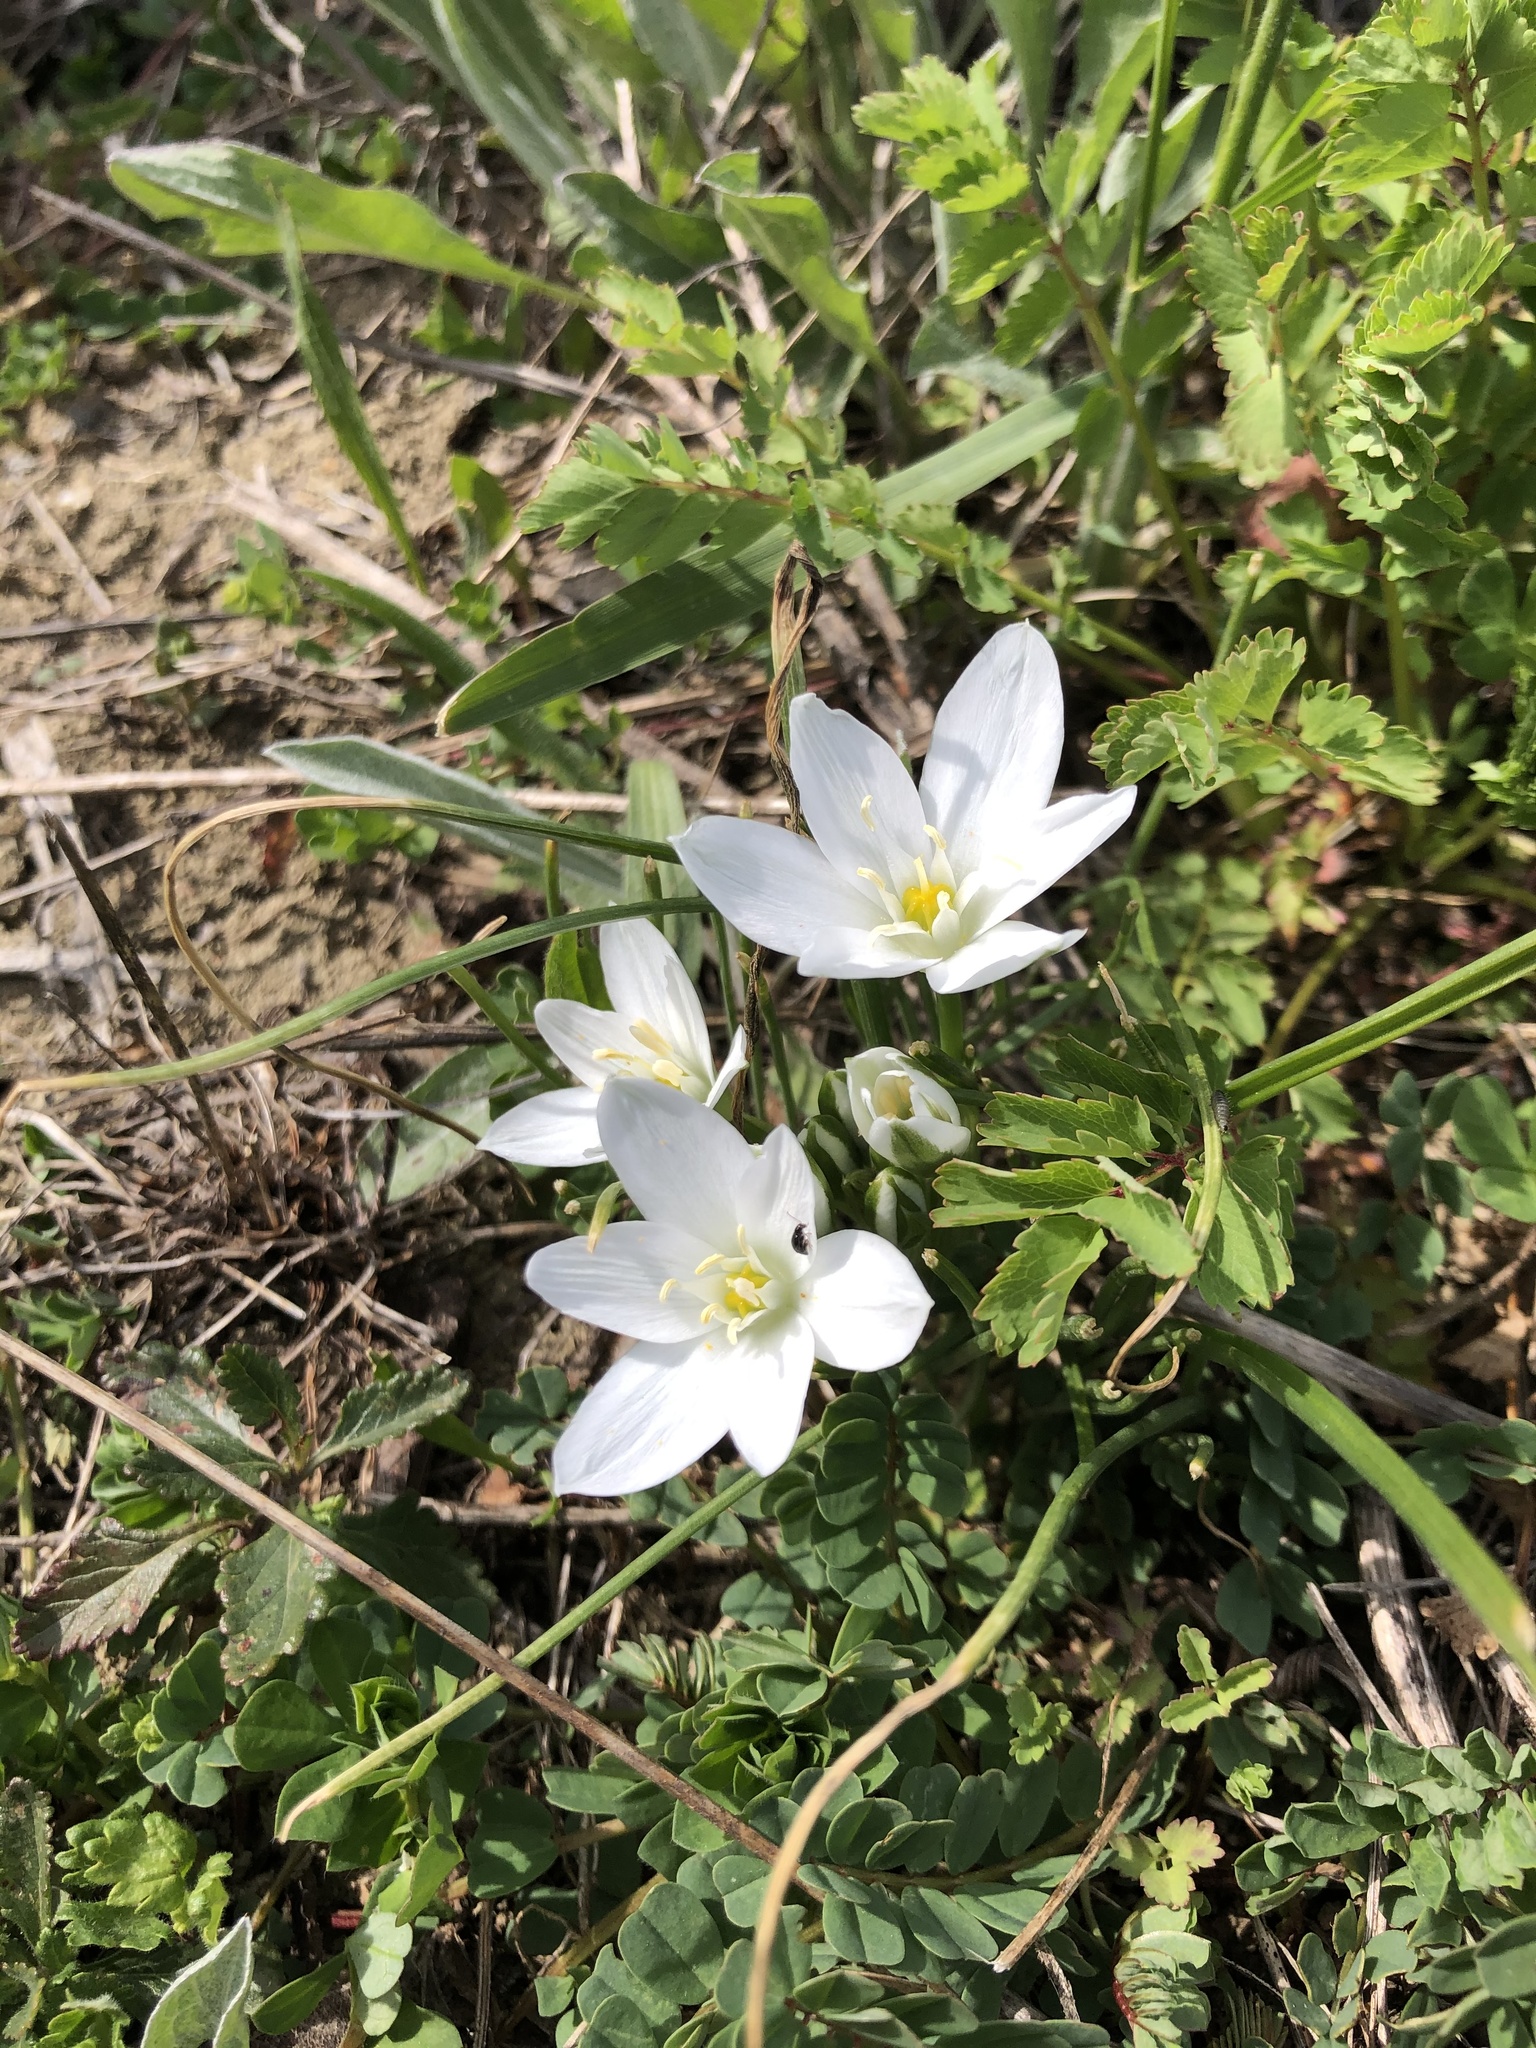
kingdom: Plantae
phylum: Tracheophyta
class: Liliopsida
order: Asparagales
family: Asparagaceae
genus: Ornithogalum
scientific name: Ornithogalum umbellatum
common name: Garden star-of-bethlehem
